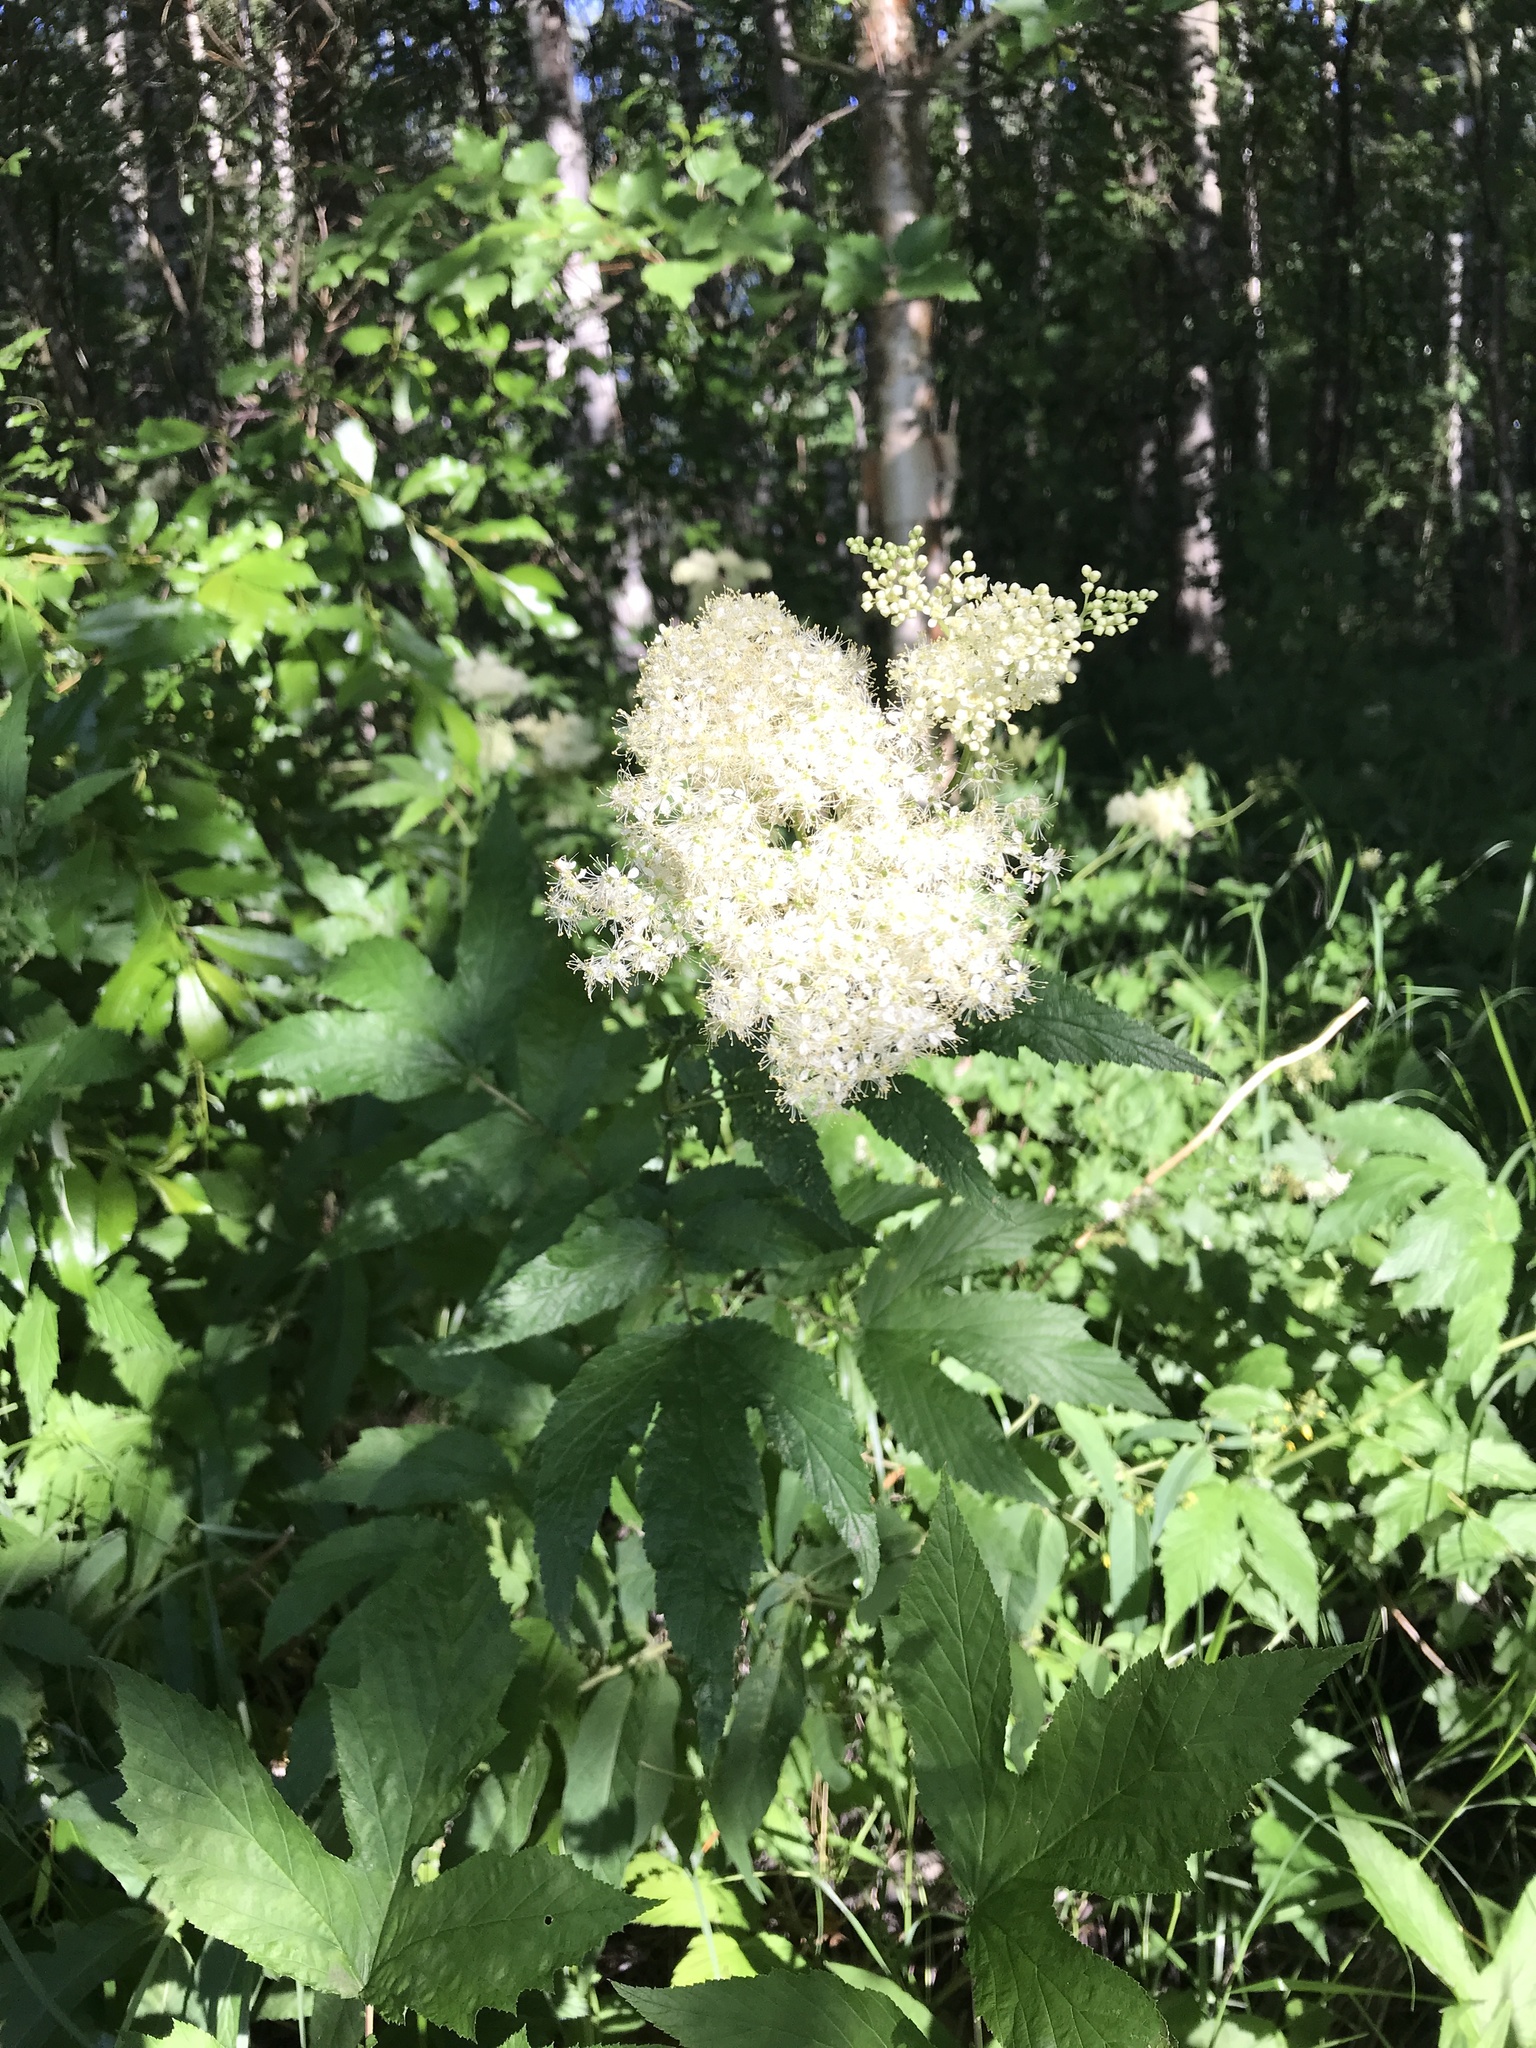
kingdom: Plantae
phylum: Tracheophyta
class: Magnoliopsida
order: Rosales
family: Rosaceae
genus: Filipendula
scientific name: Filipendula ulmaria
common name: Meadowsweet
